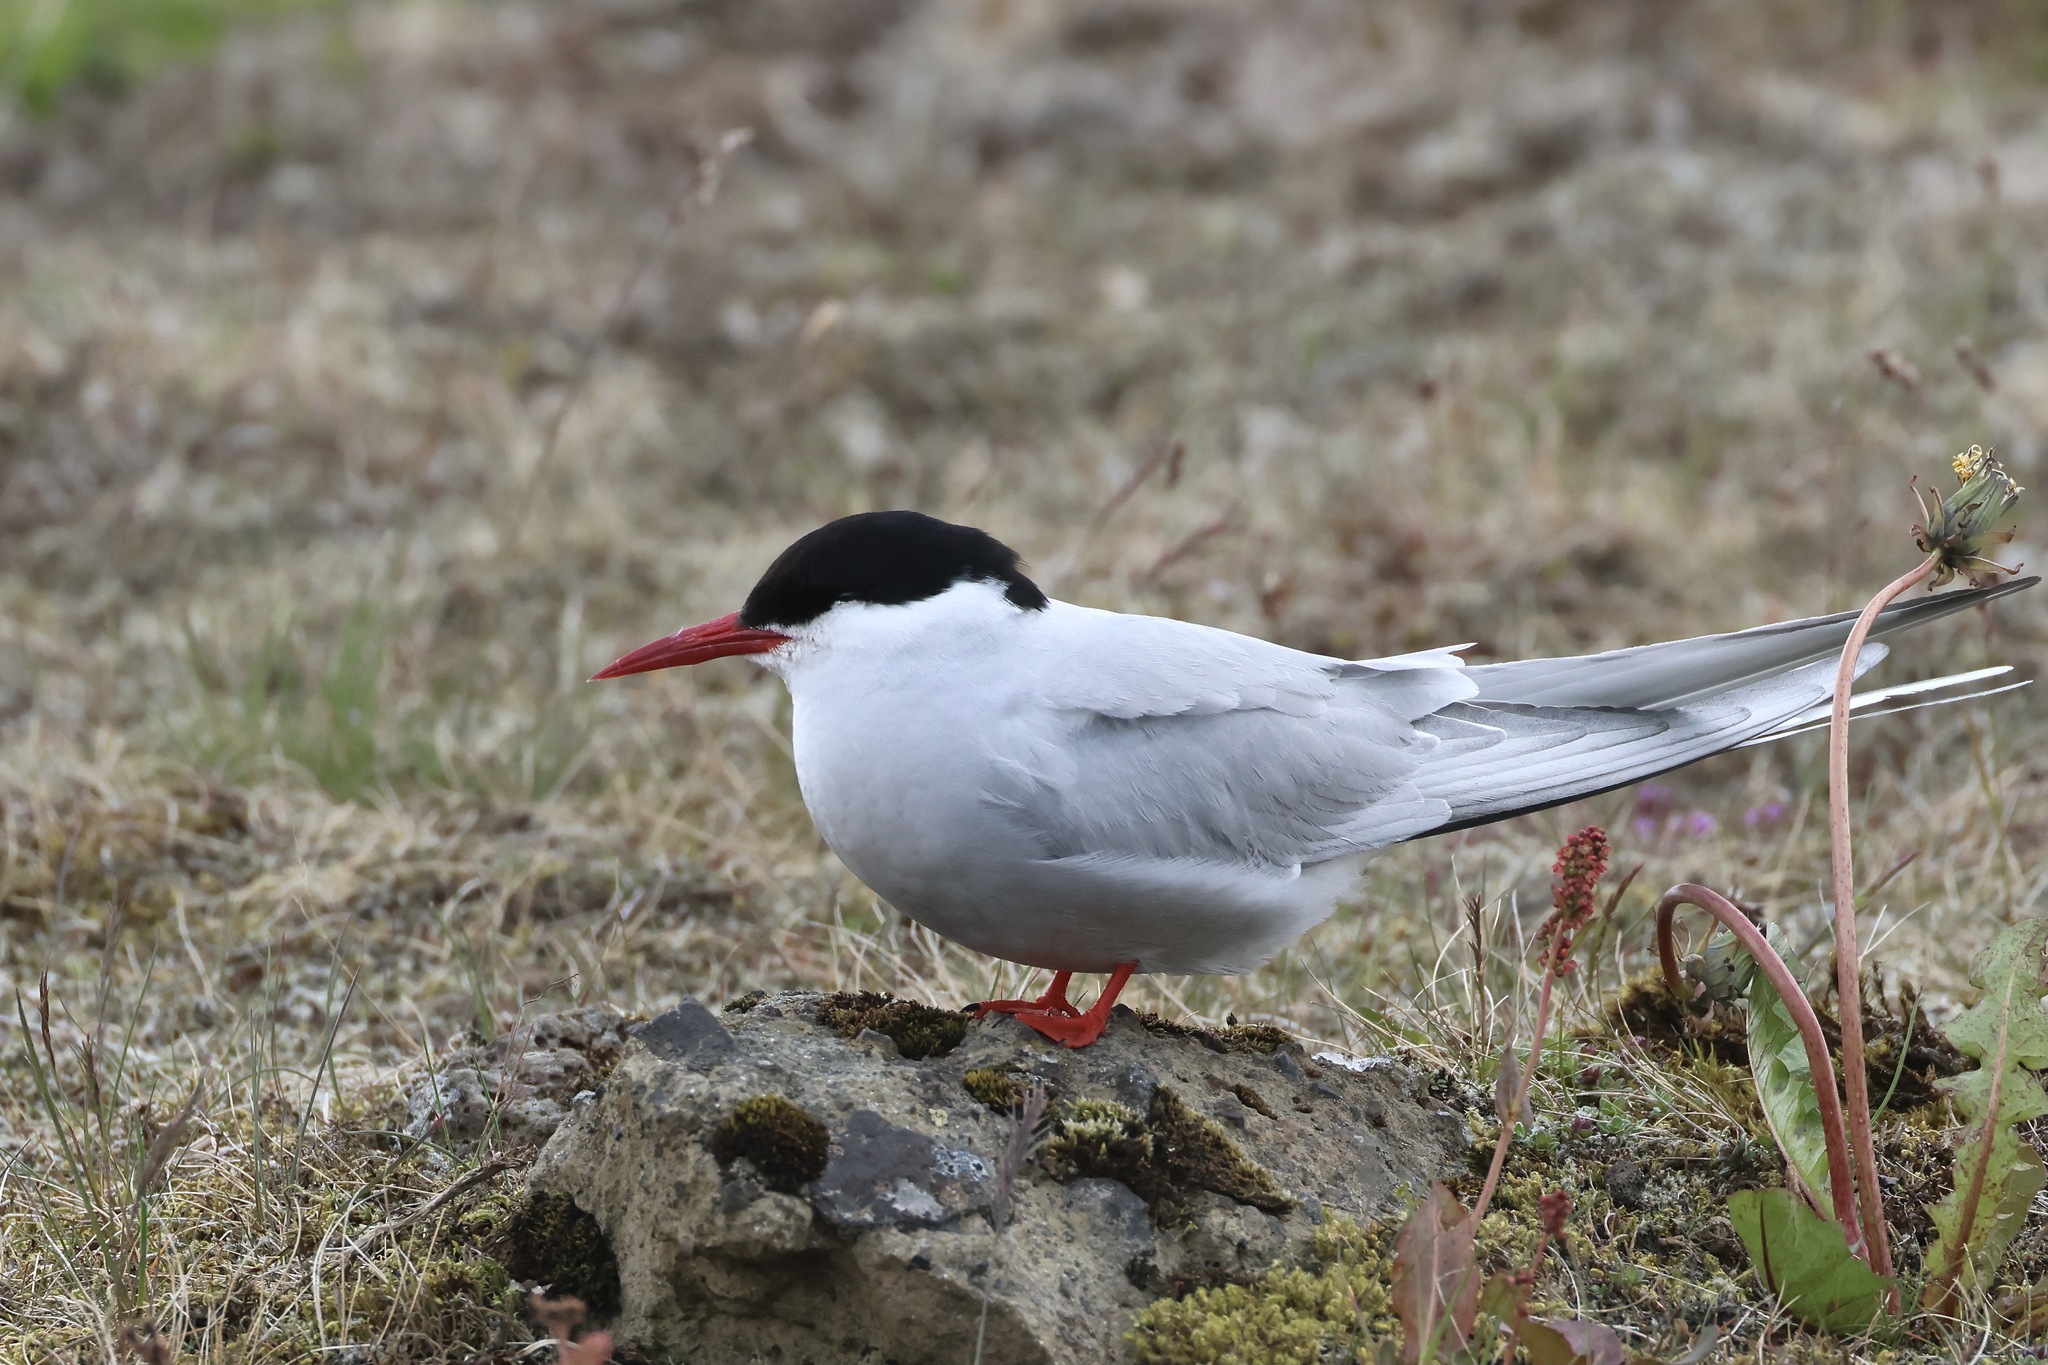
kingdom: Animalia
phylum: Chordata
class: Aves
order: Charadriiformes
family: Laridae
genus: Sterna
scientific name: Sterna paradisaea
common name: Arctic tern
